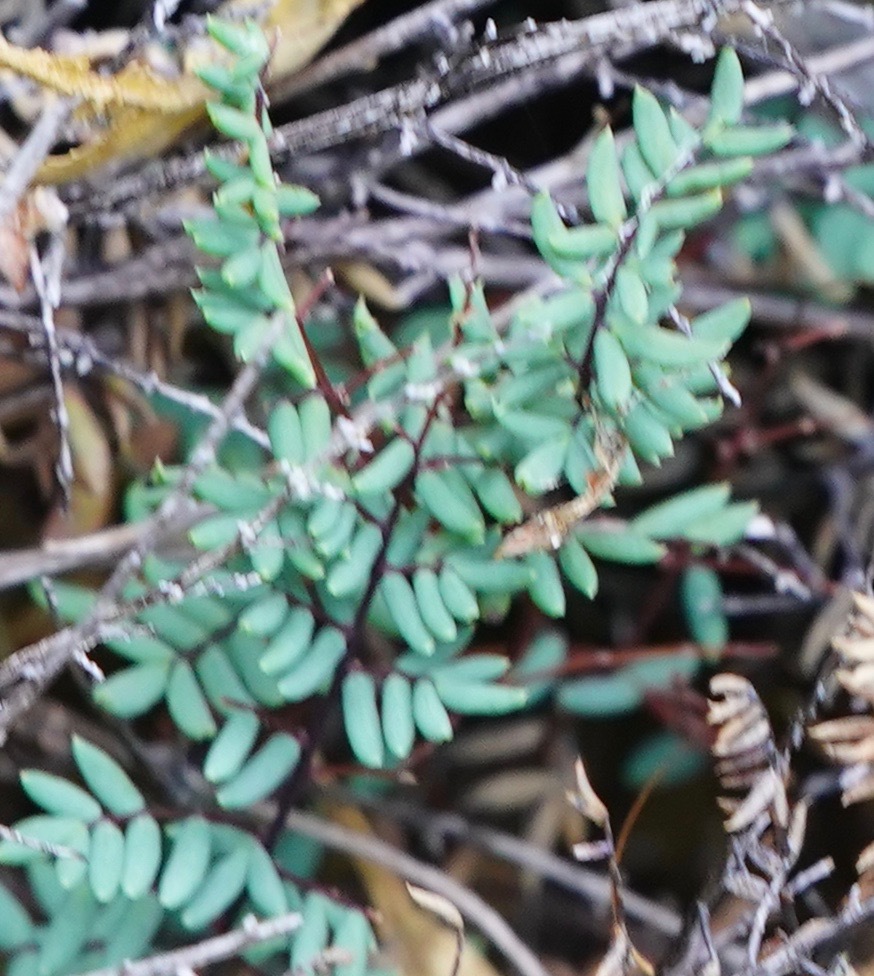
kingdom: Plantae
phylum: Tracheophyta
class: Polypodiopsida
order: Polypodiales
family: Pteridaceae
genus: Pellaea
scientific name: Pellaea mucronata
